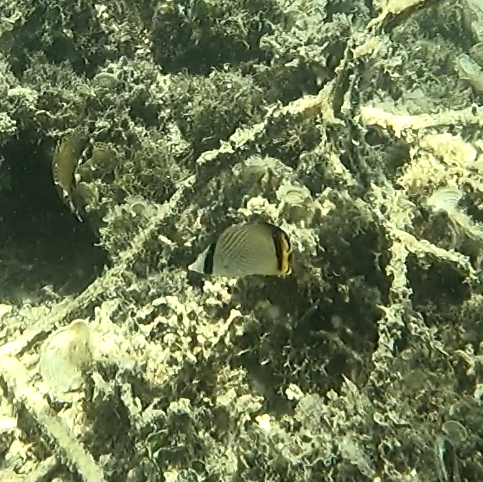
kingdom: Animalia
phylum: Chordata
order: Perciformes
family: Chaetodontidae
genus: Chaetodon
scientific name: Chaetodon vagabundus
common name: Vagabond butterflyfish
